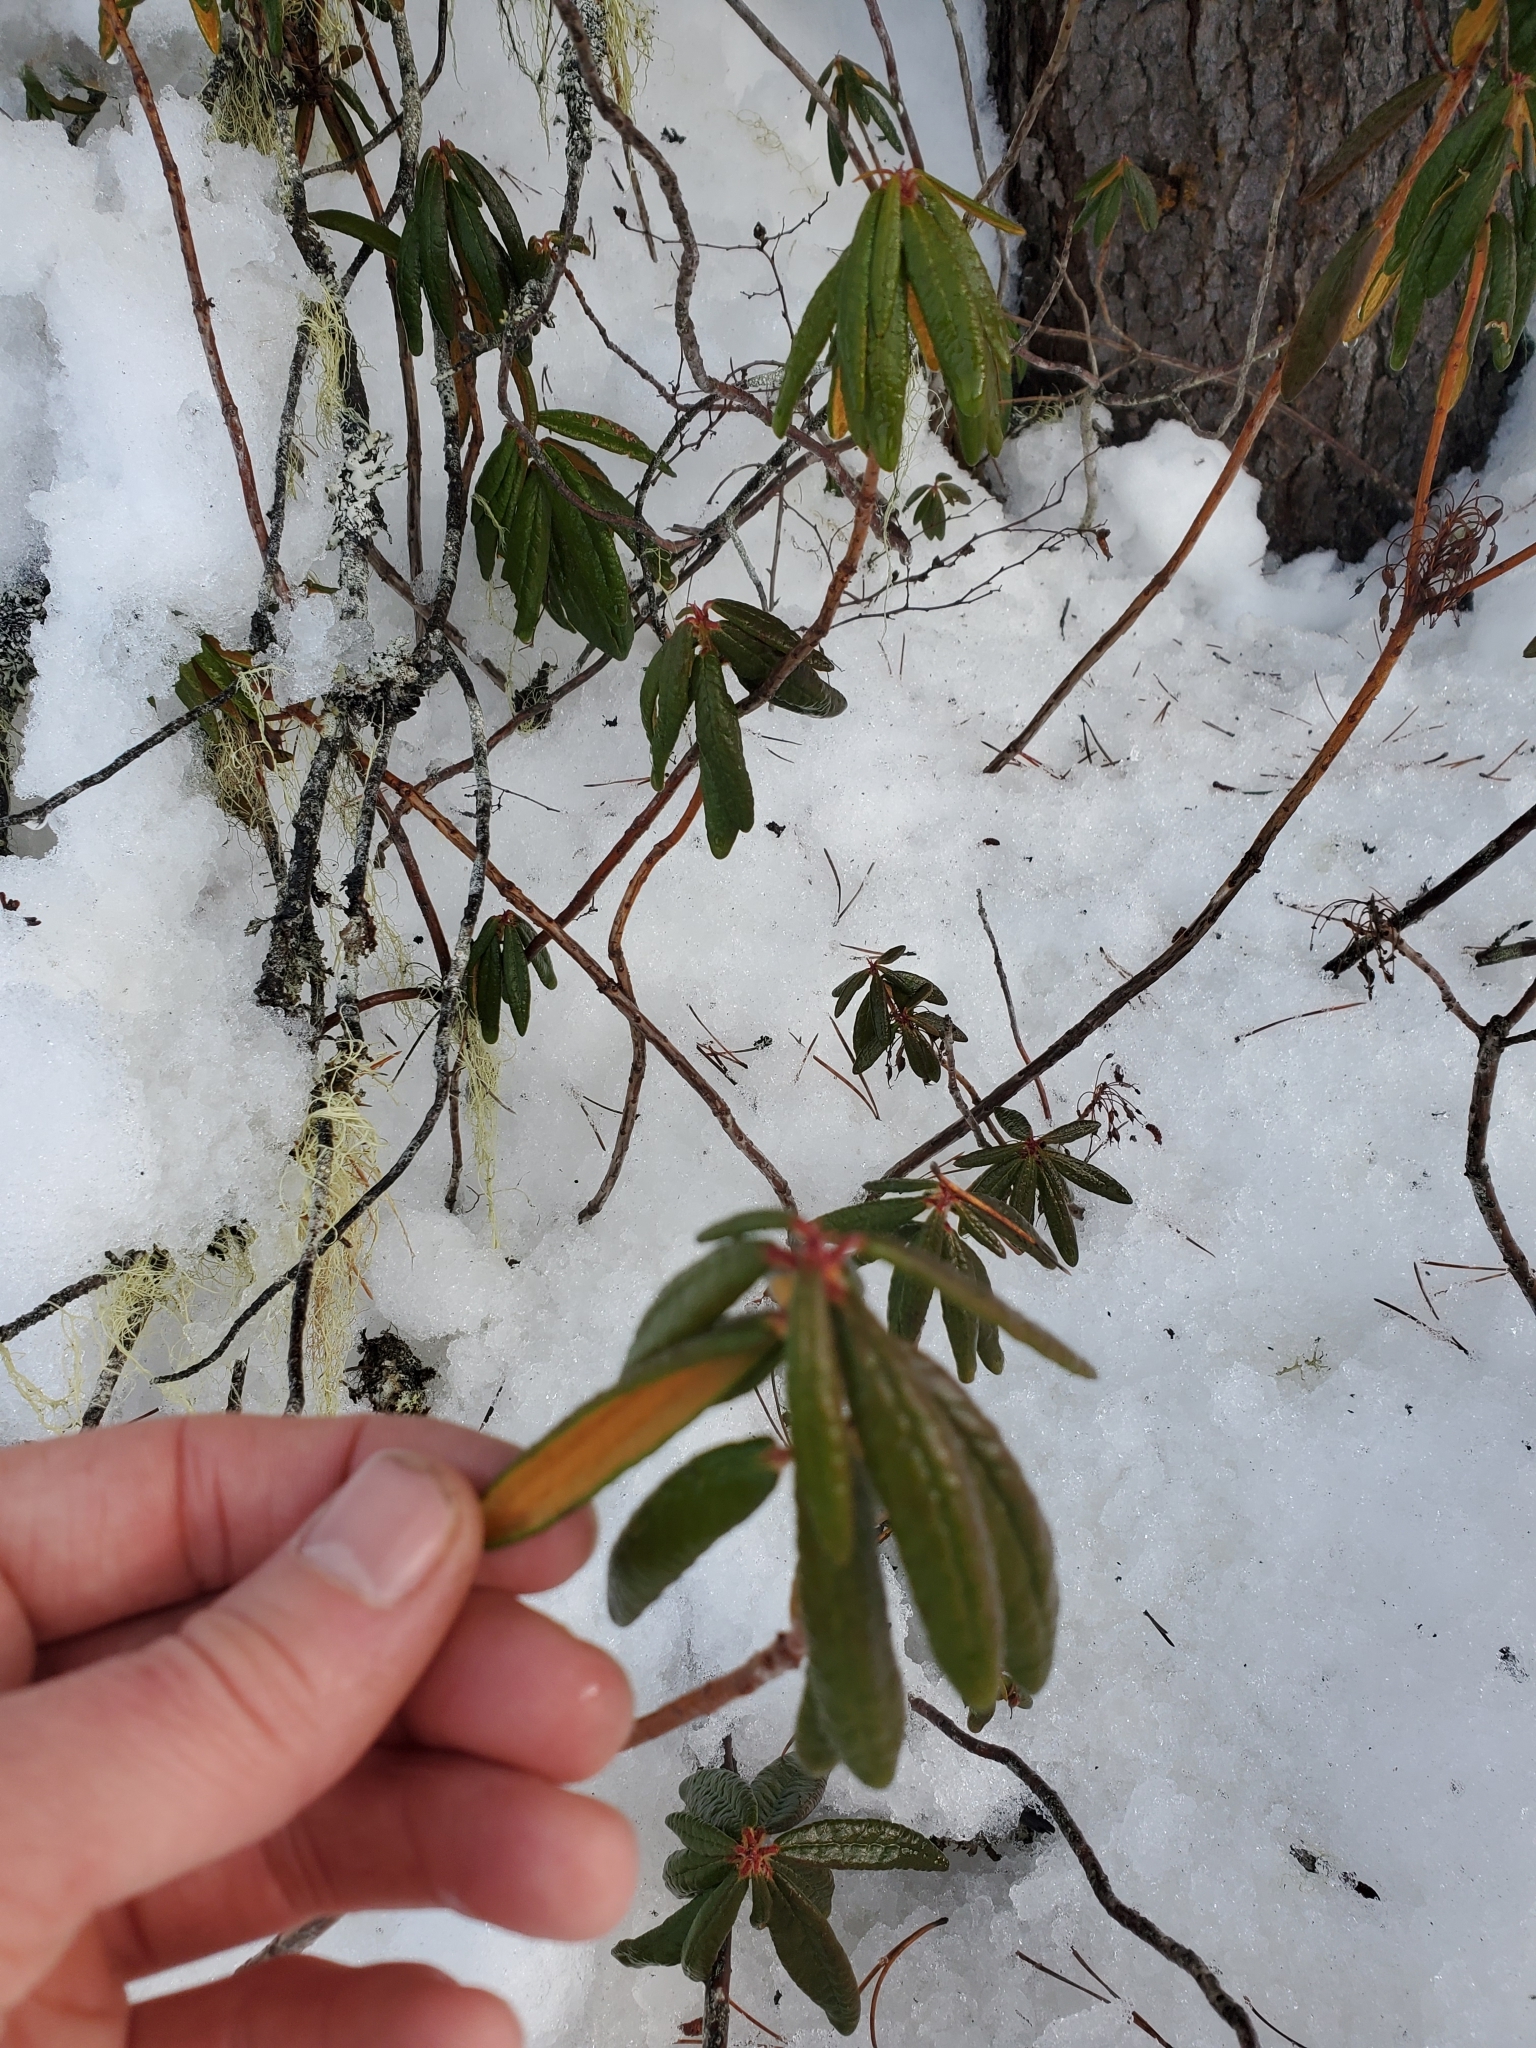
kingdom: Plantae
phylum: Tracheophyta
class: Magnoliopsida
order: Ericales
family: Ericaceae
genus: Rhododendron
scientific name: Rhododendron groenlandicum
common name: Bog labrador tea
